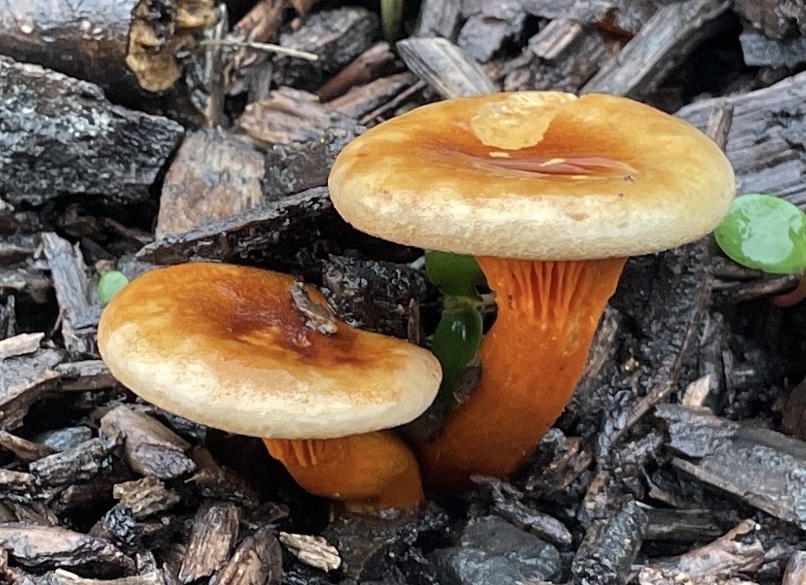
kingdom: Fungi
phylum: Basidiomycota
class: Agaricomycetes
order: Boletales
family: Hygrophoropsidaceae
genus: Hygrophoropsis
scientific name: Hygrophoropsis aurantiaca
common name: False chanterelle
